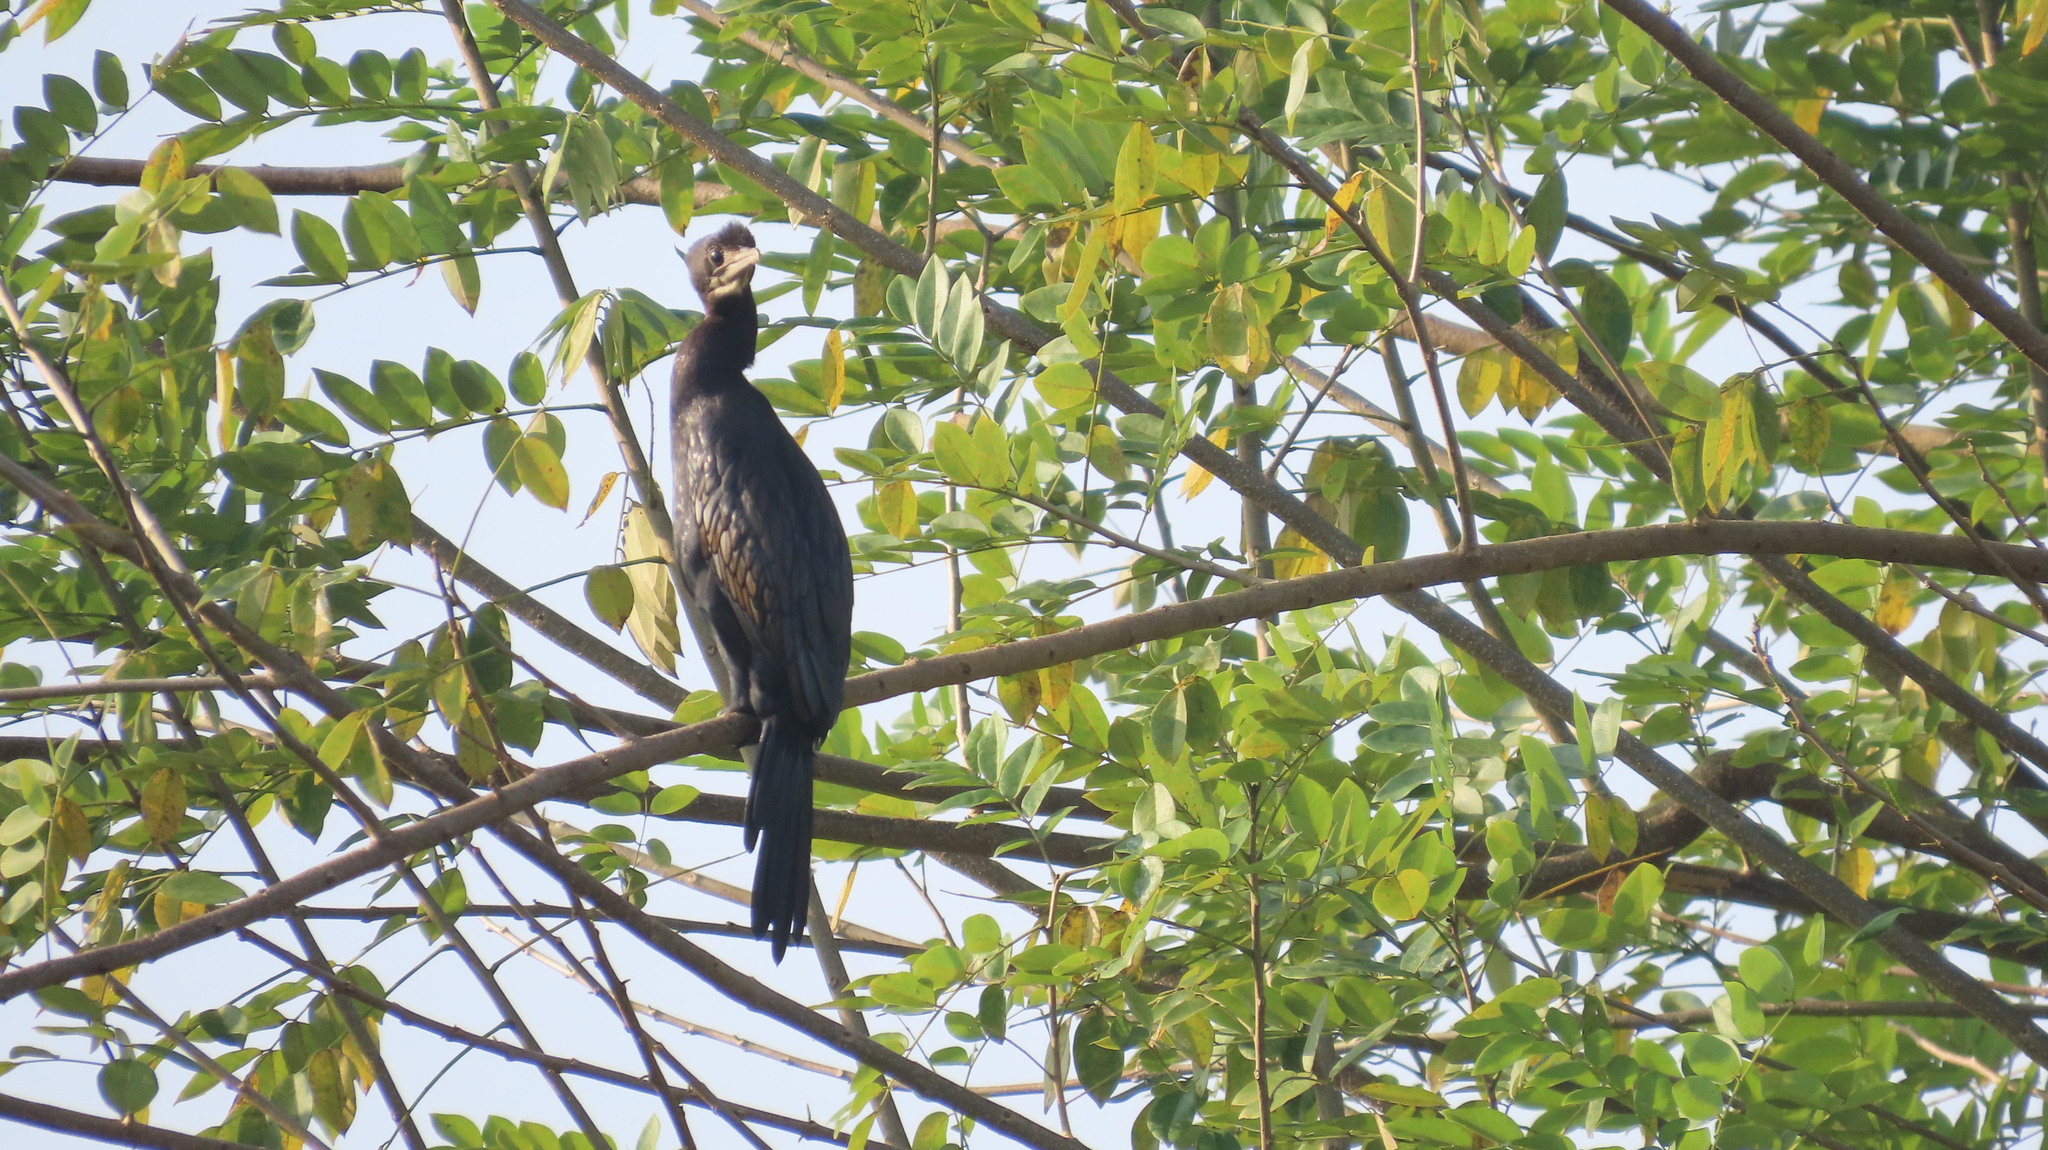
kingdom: Animalia
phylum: Chordata
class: Aves
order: Suliformes
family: Phalacrocoracidae
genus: Microcarbo
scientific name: Microcarbo niger
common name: Little cormorant
